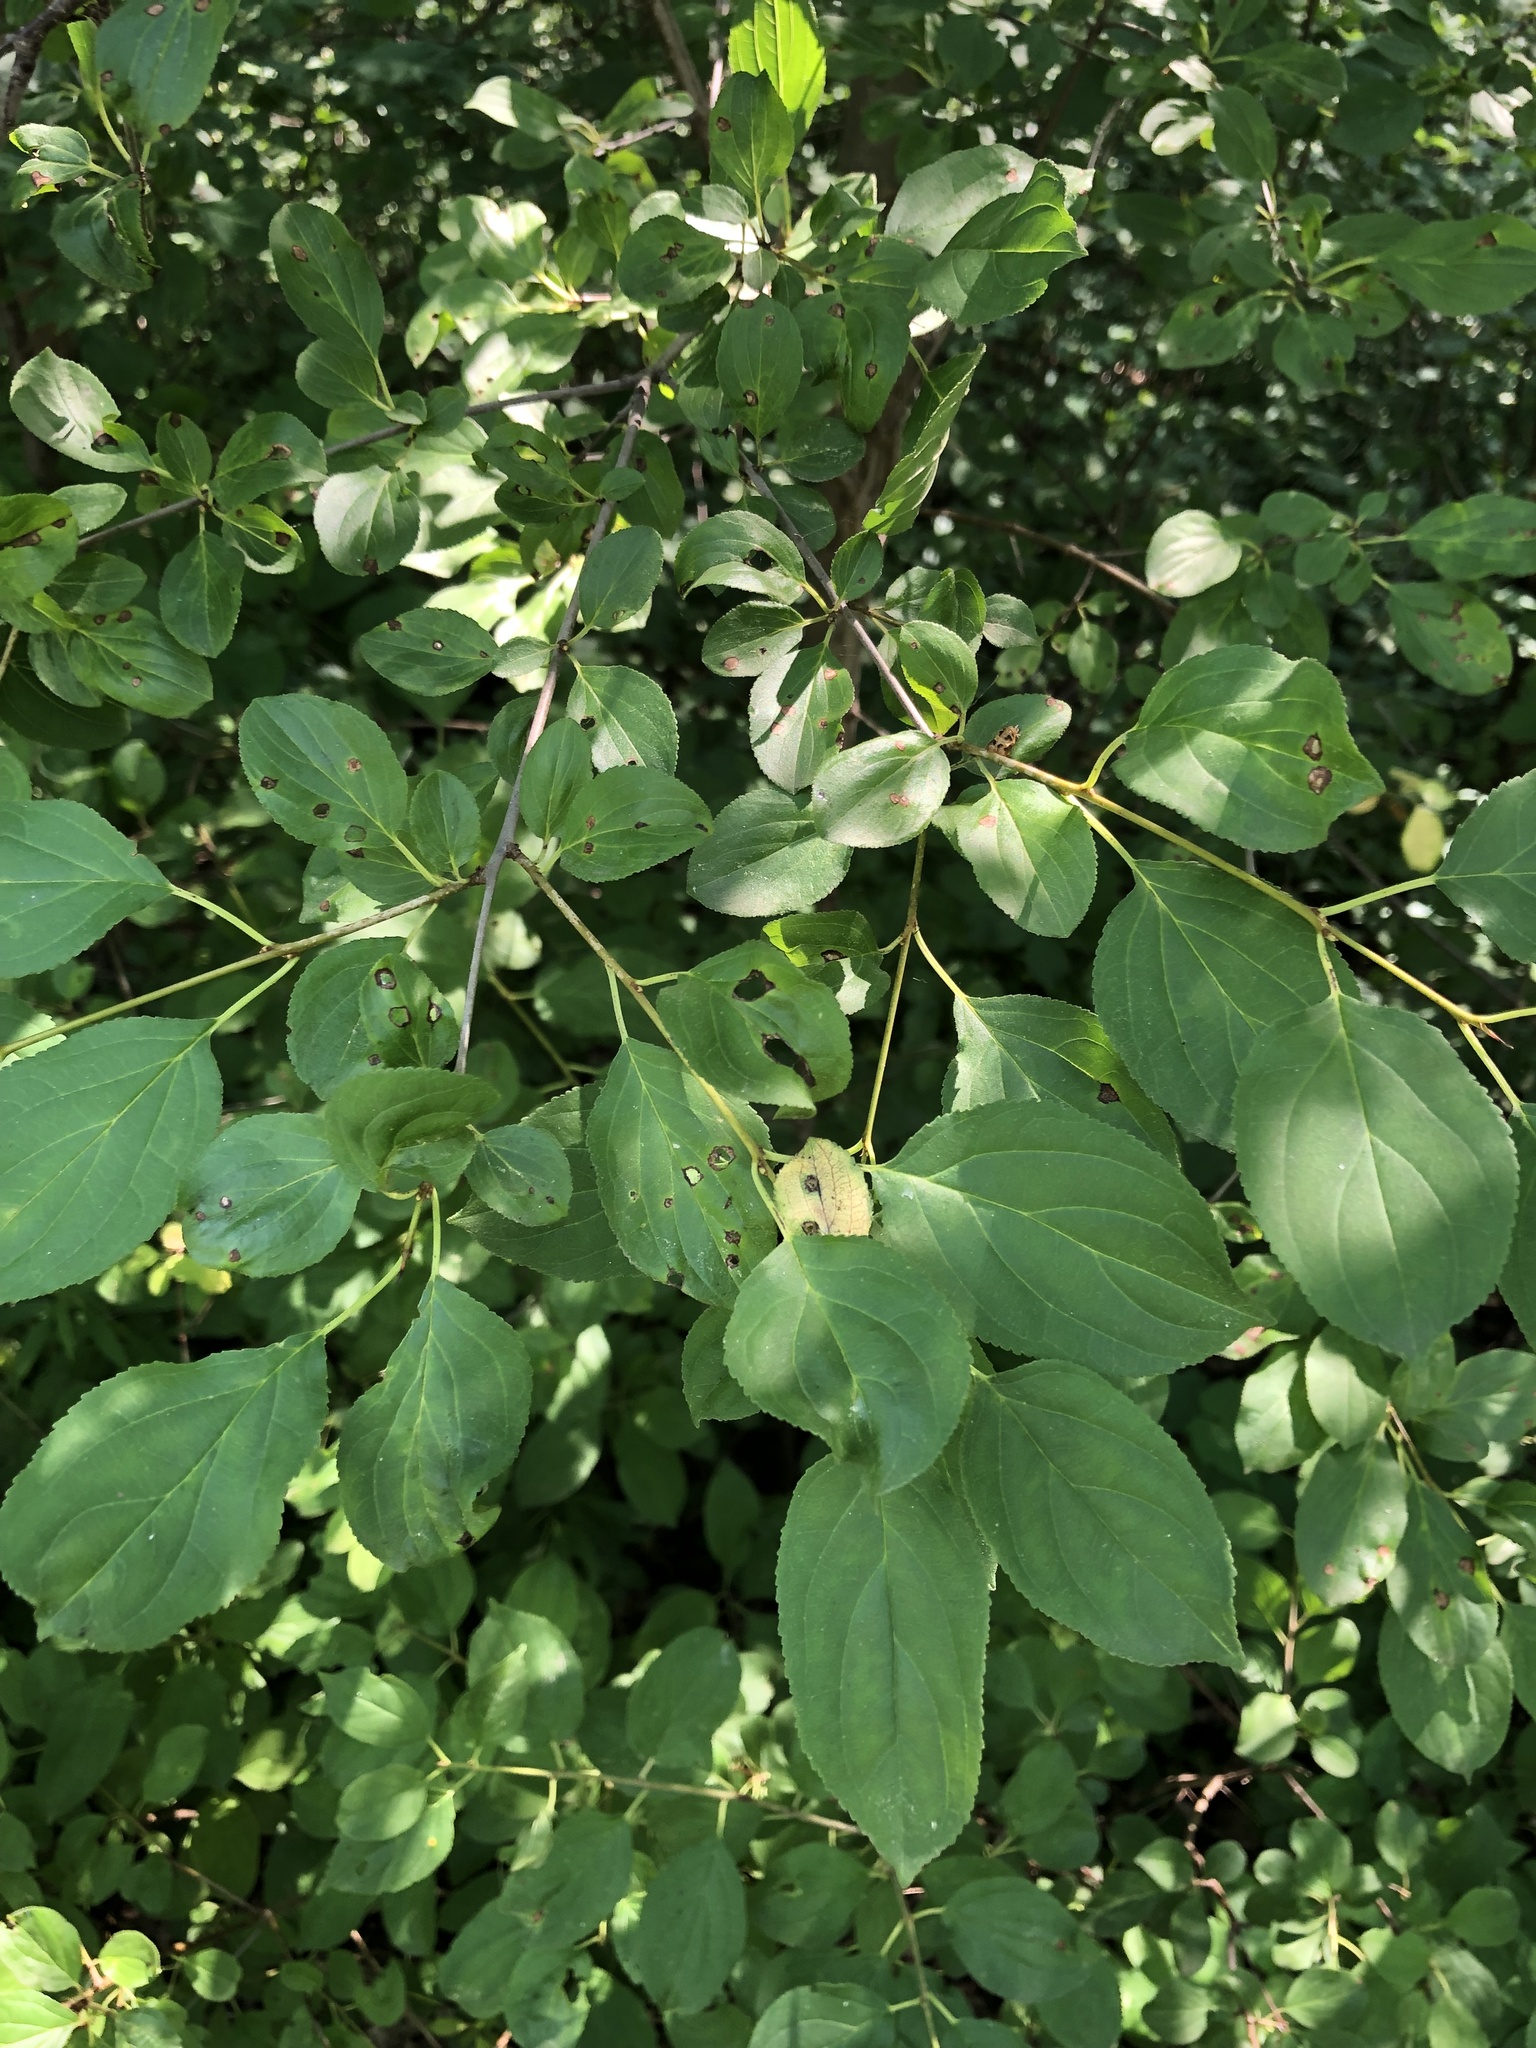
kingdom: Plantae
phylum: Tracheophyta
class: Magnoliopsida
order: Rosales
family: Rhamnaceae
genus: Rhamnus
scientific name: Rhamnus cathartica
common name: Common buckthorn
